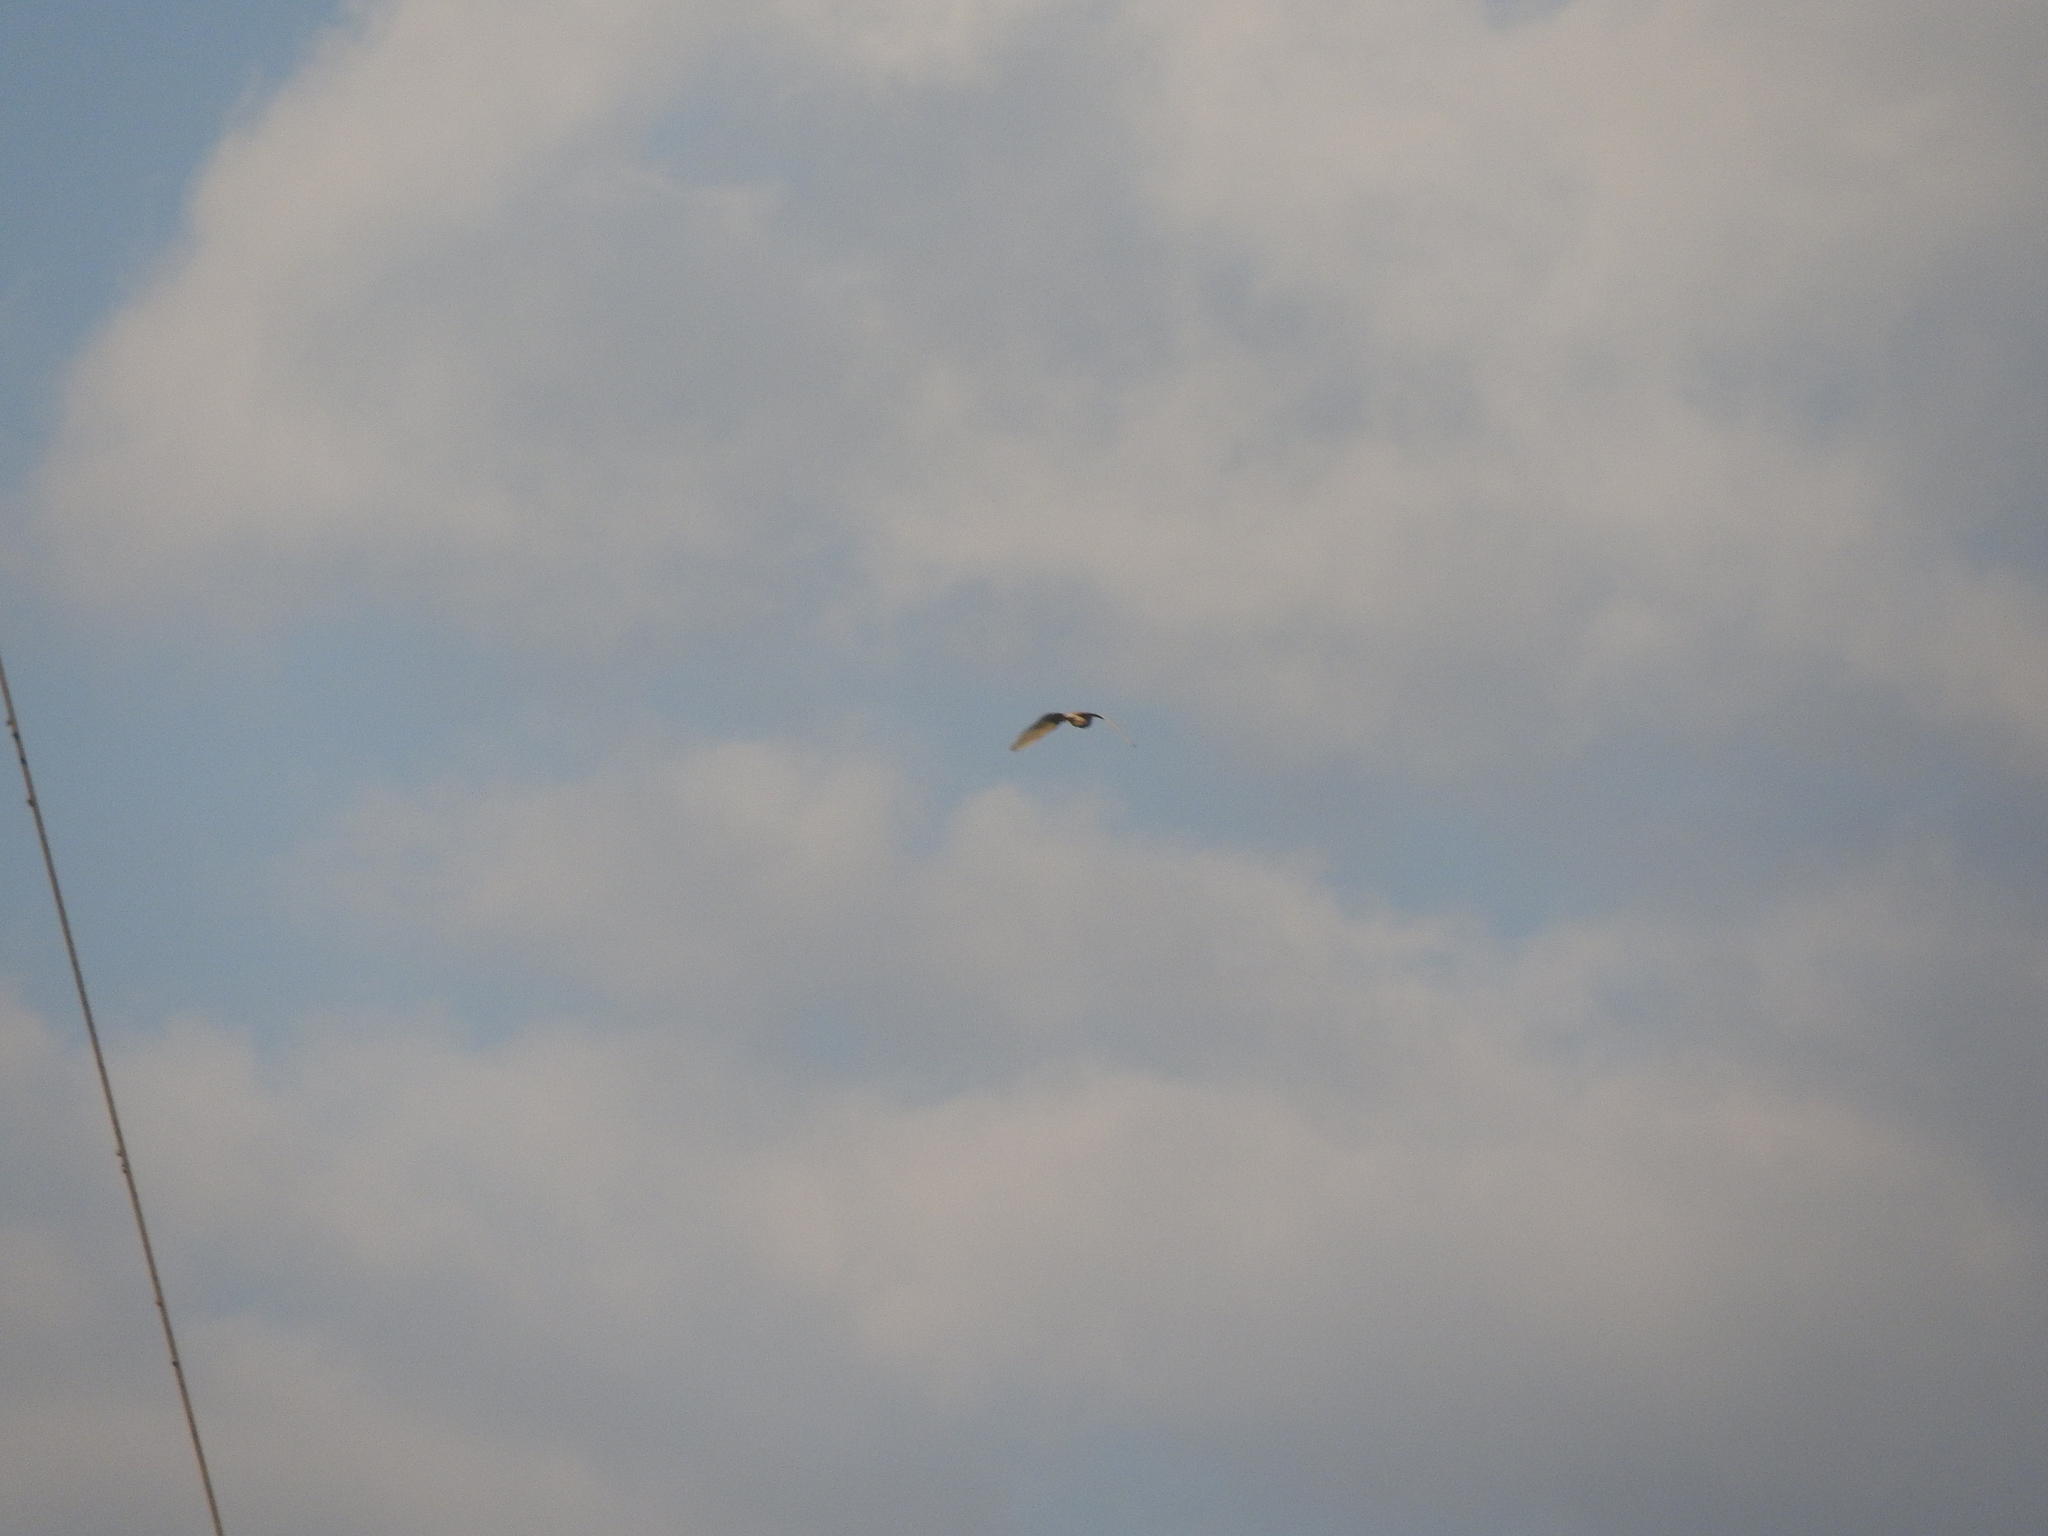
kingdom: Animalia
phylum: Chordata
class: Aves
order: Pelecaniformes
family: Ardeidae
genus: Bubulcus
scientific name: Bubulcus ibis
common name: Cattle egret
